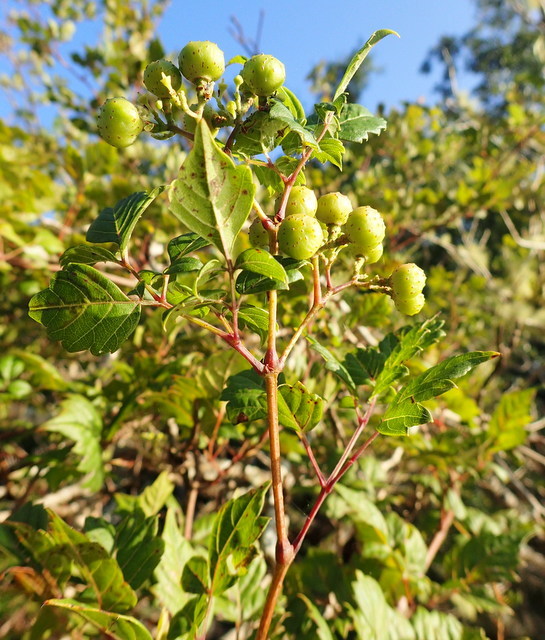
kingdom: Plantae
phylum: Tracheophyta
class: Magnoliopsida
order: Vitales
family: Vitaceae
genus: Nekemias
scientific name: Nekemias arborea
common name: Peppervine
